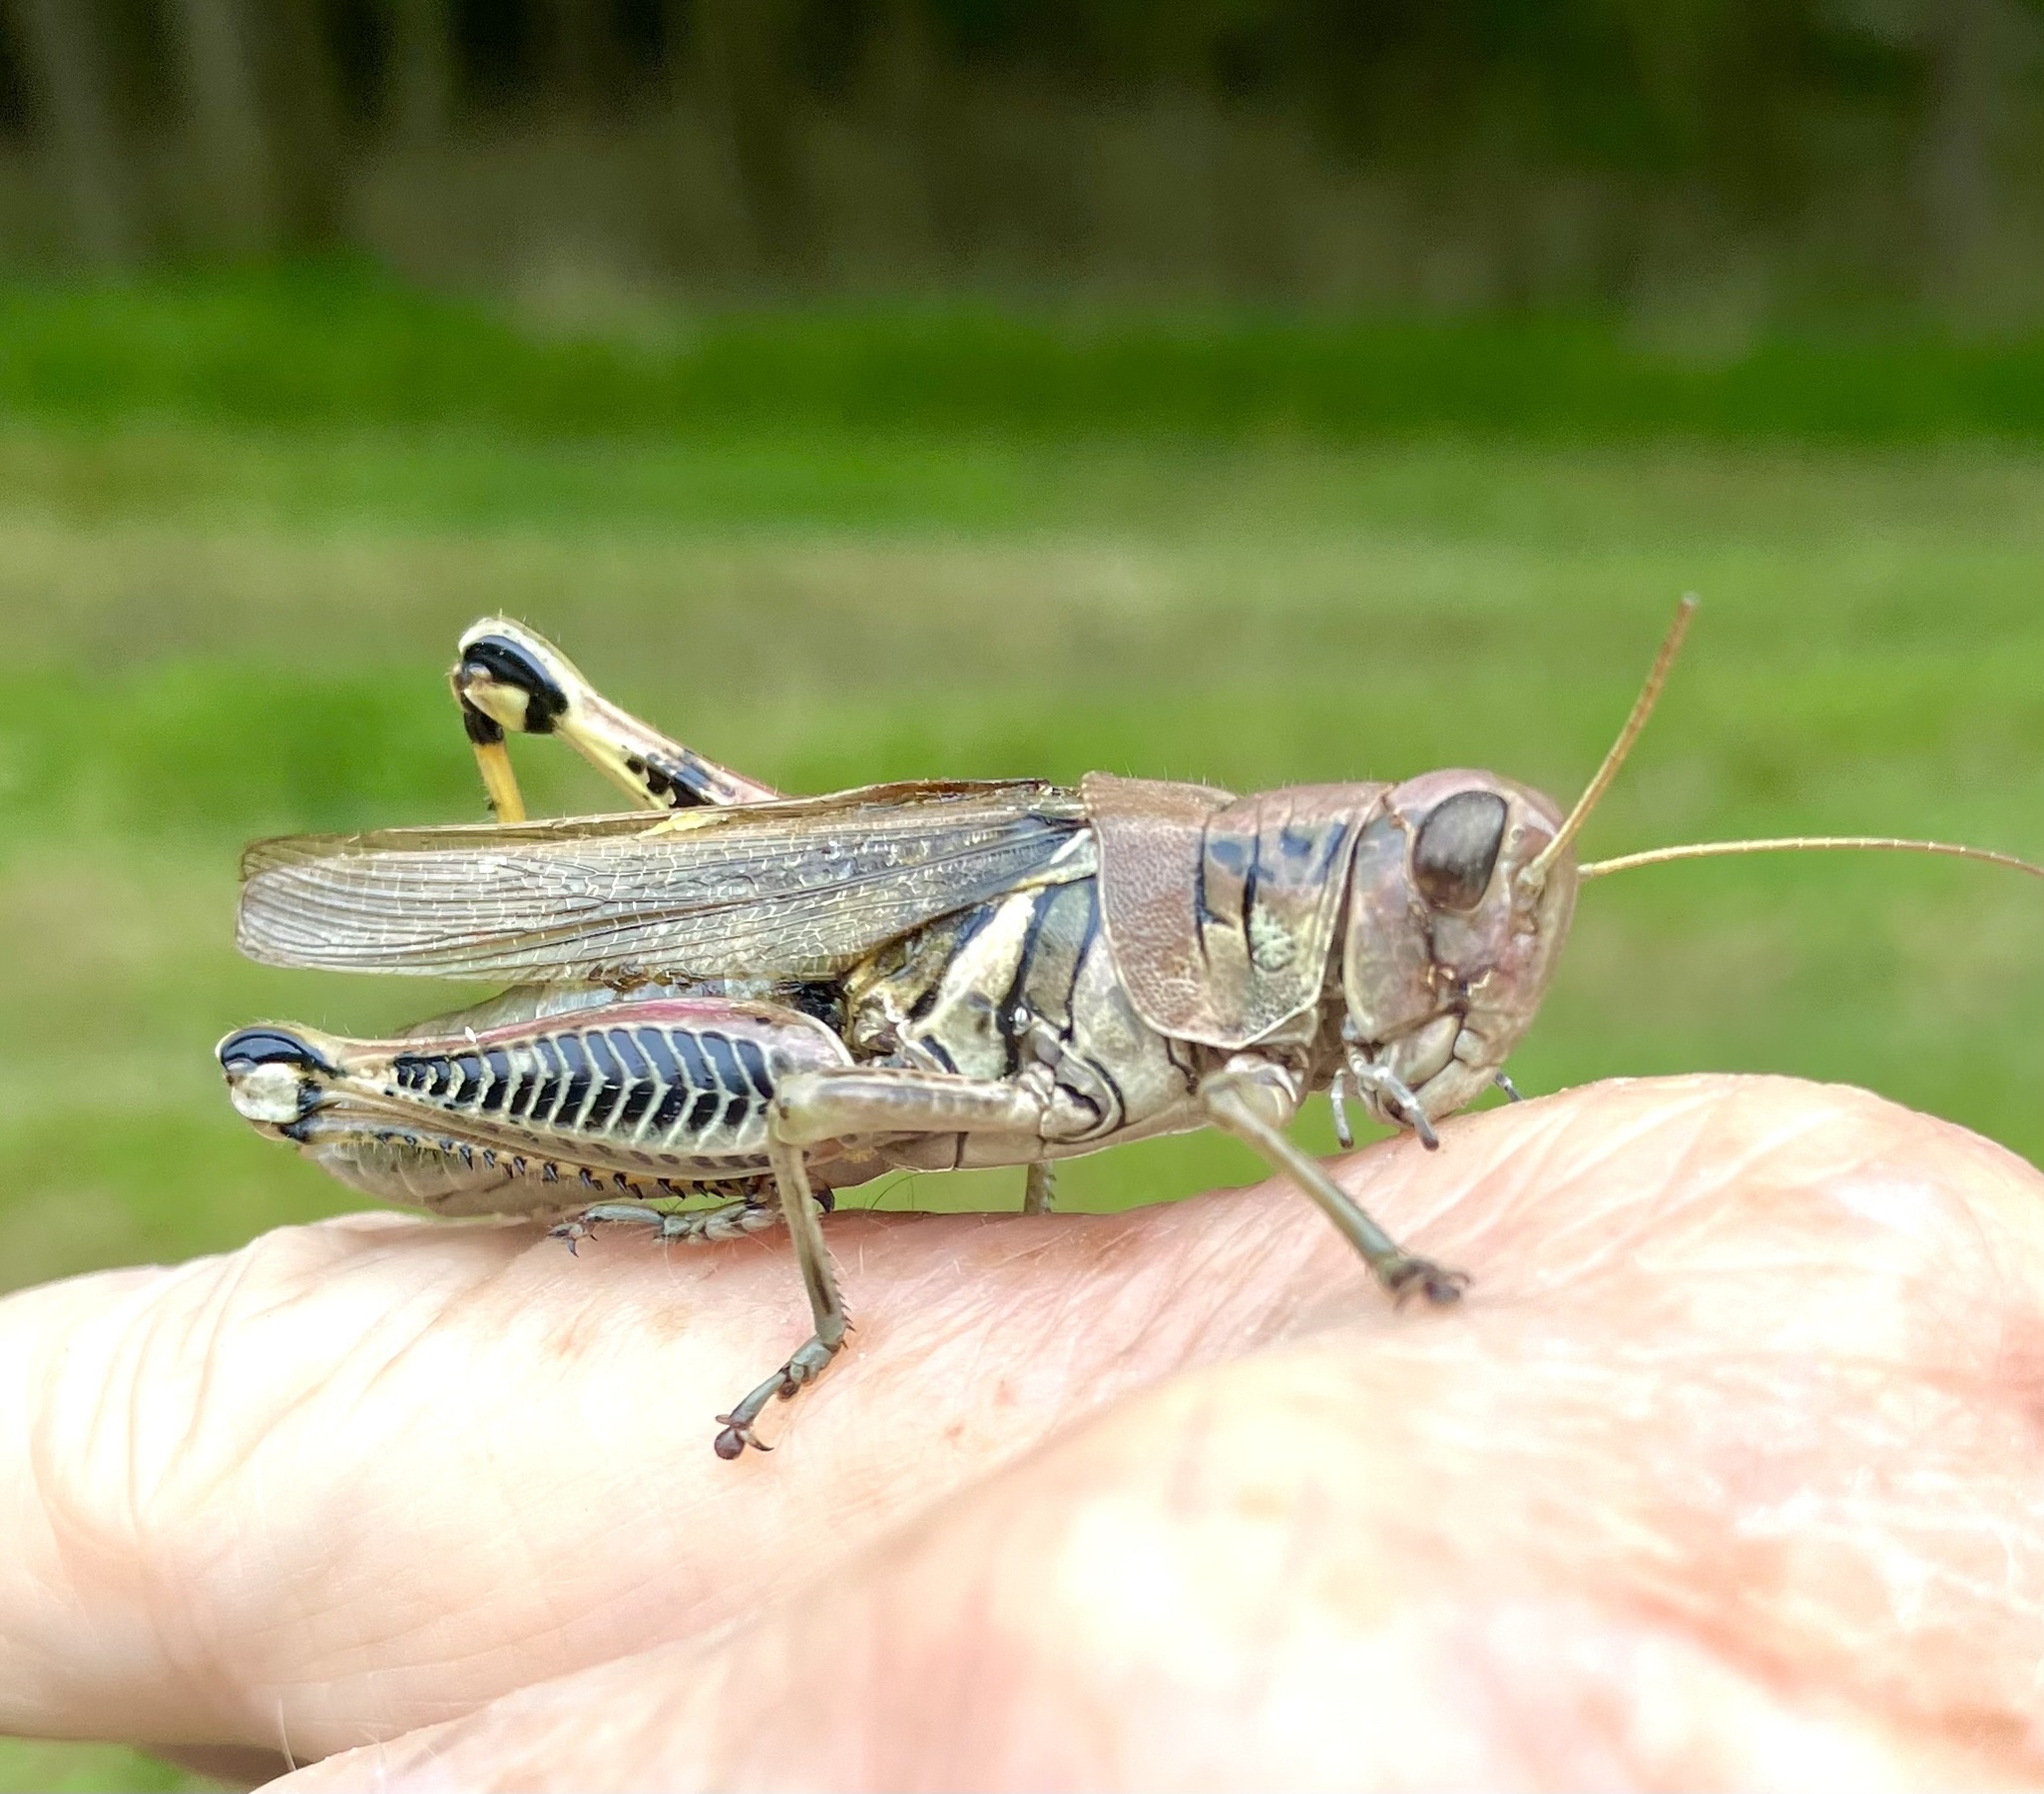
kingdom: Animalia
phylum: Arthropoda
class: Insecta
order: Orthoptera
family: Acrididae
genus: Melanoplus
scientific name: Melanoplus differentialis
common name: Differential grasshopper
